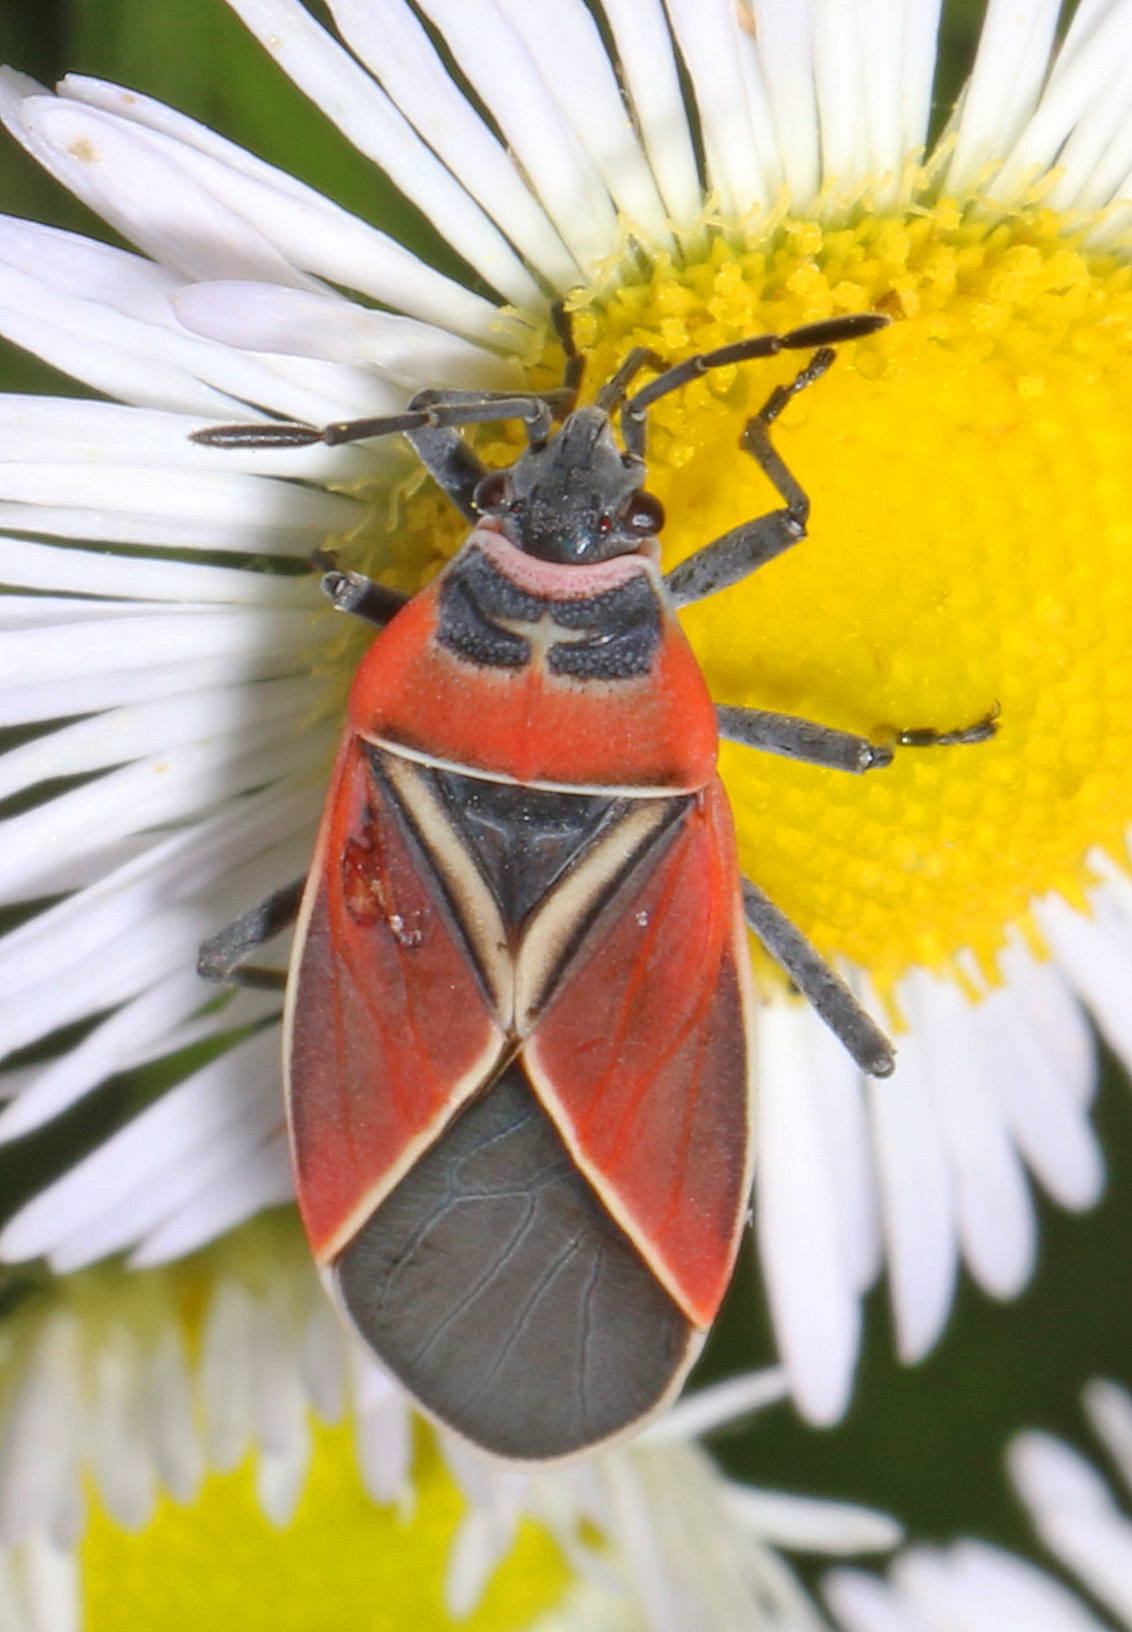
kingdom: Animalia
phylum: Arthropoda
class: Insecta
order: Hemiptera
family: Lygaeidae
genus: Neacoryphus
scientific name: Neacoryphus bicrucis
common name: Lygaeid bug
